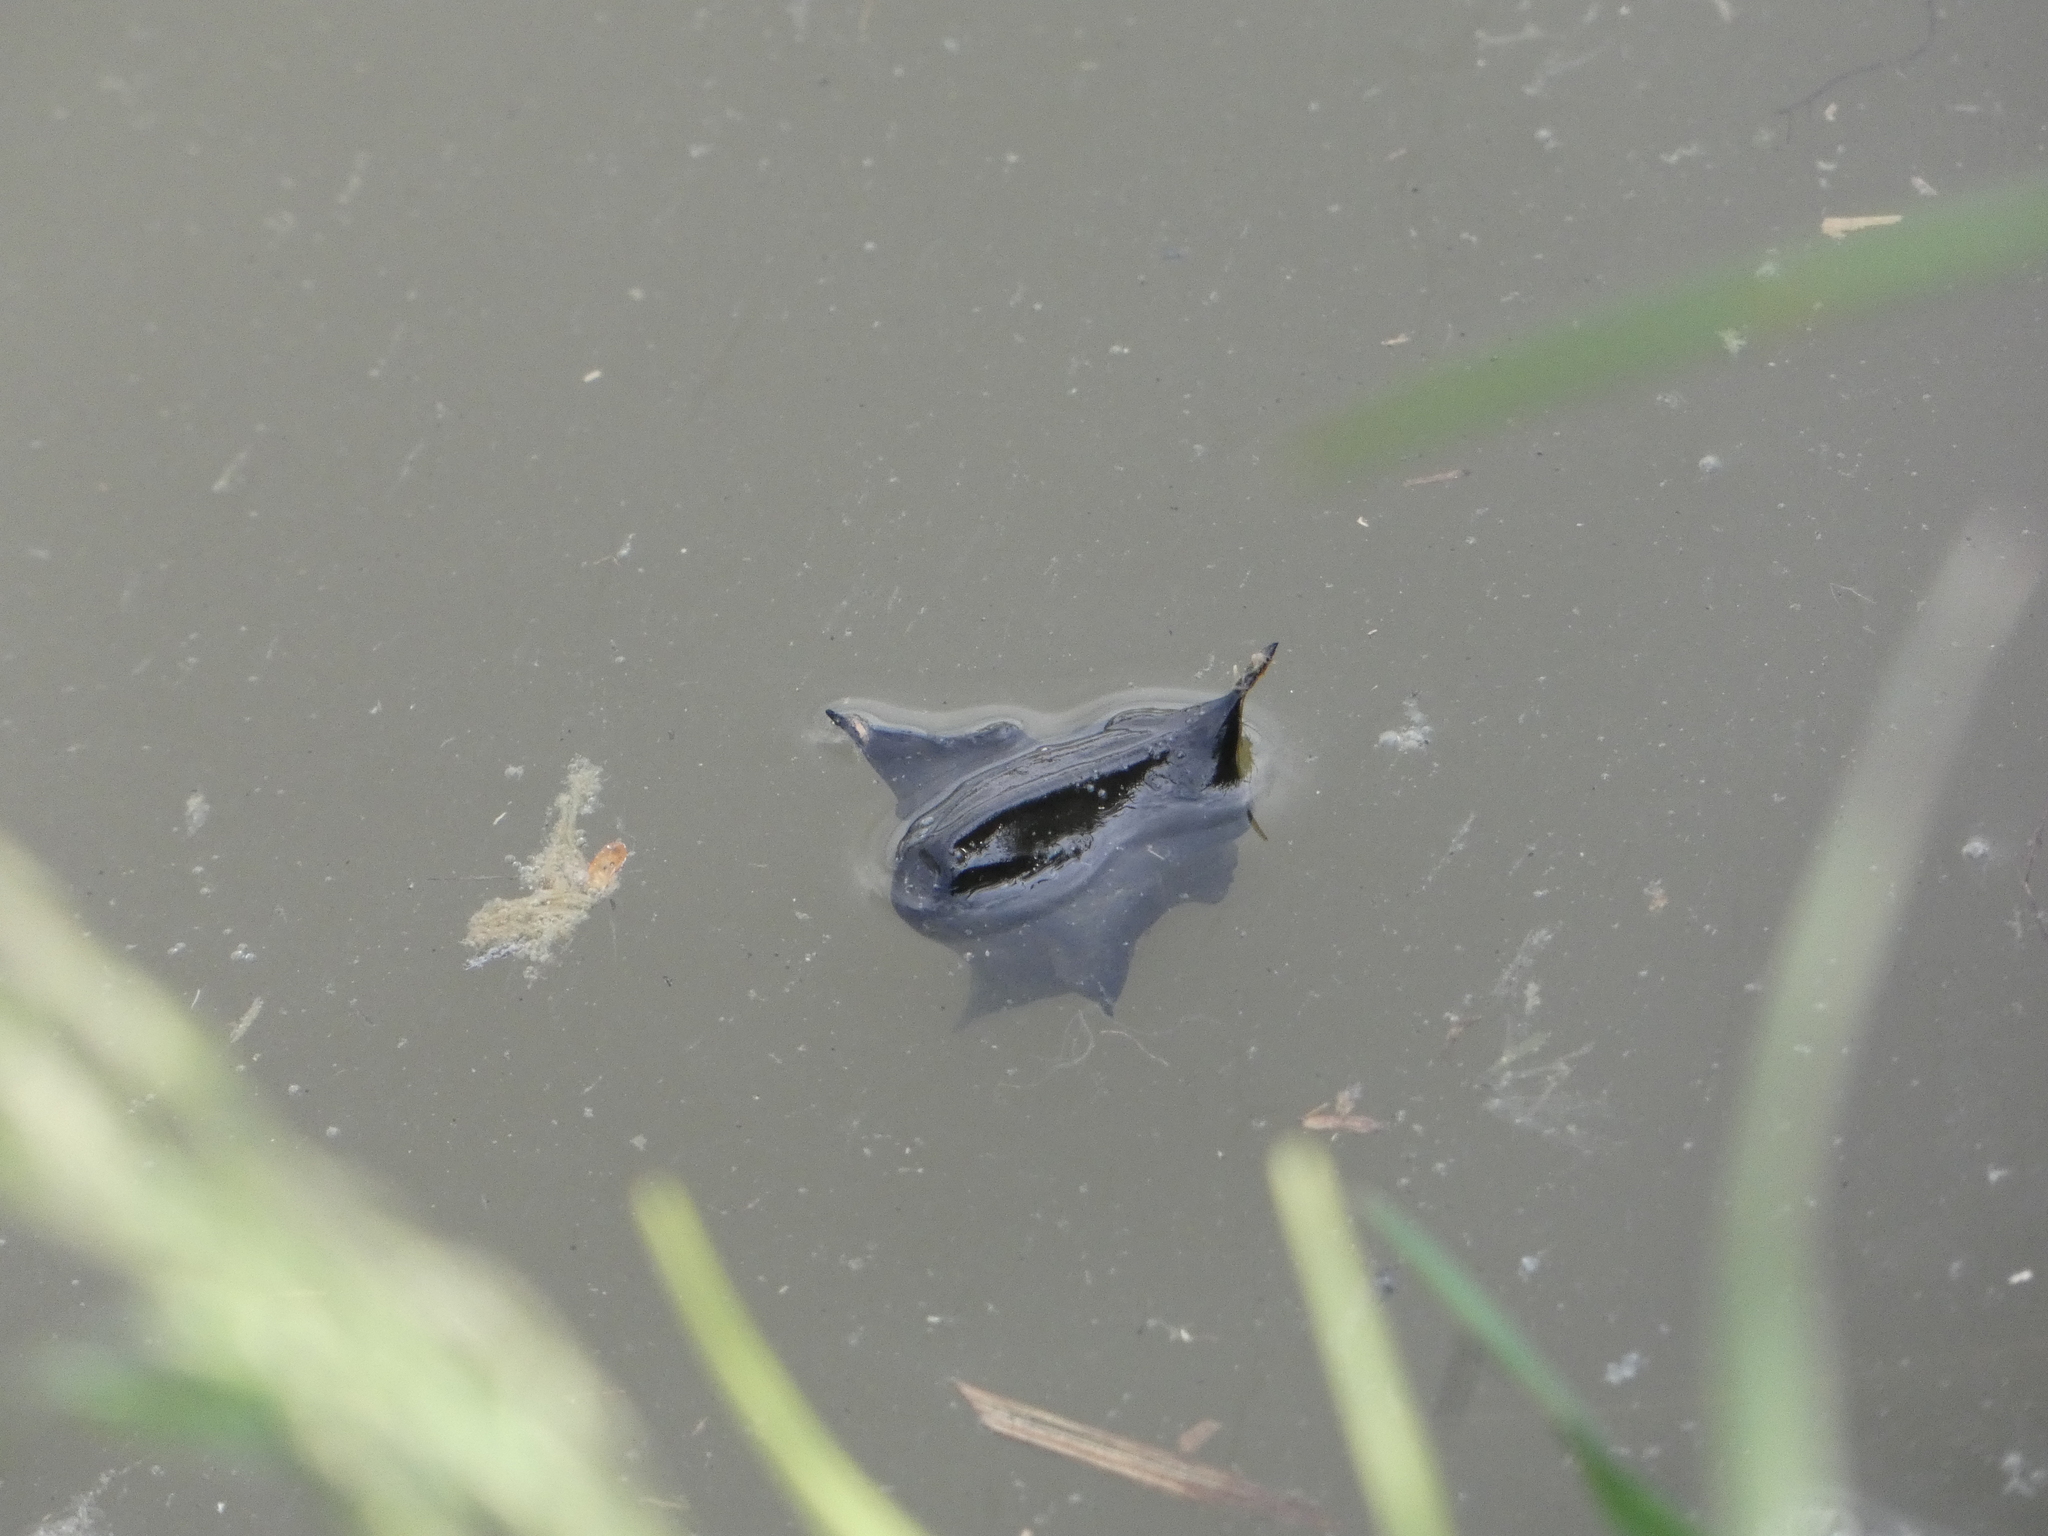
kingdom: Plantae
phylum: Tracheophyta
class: Magnoliopsida
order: Myrtales
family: Lythraceae
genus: Trapa
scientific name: Trapa natans
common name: Water chestnut
